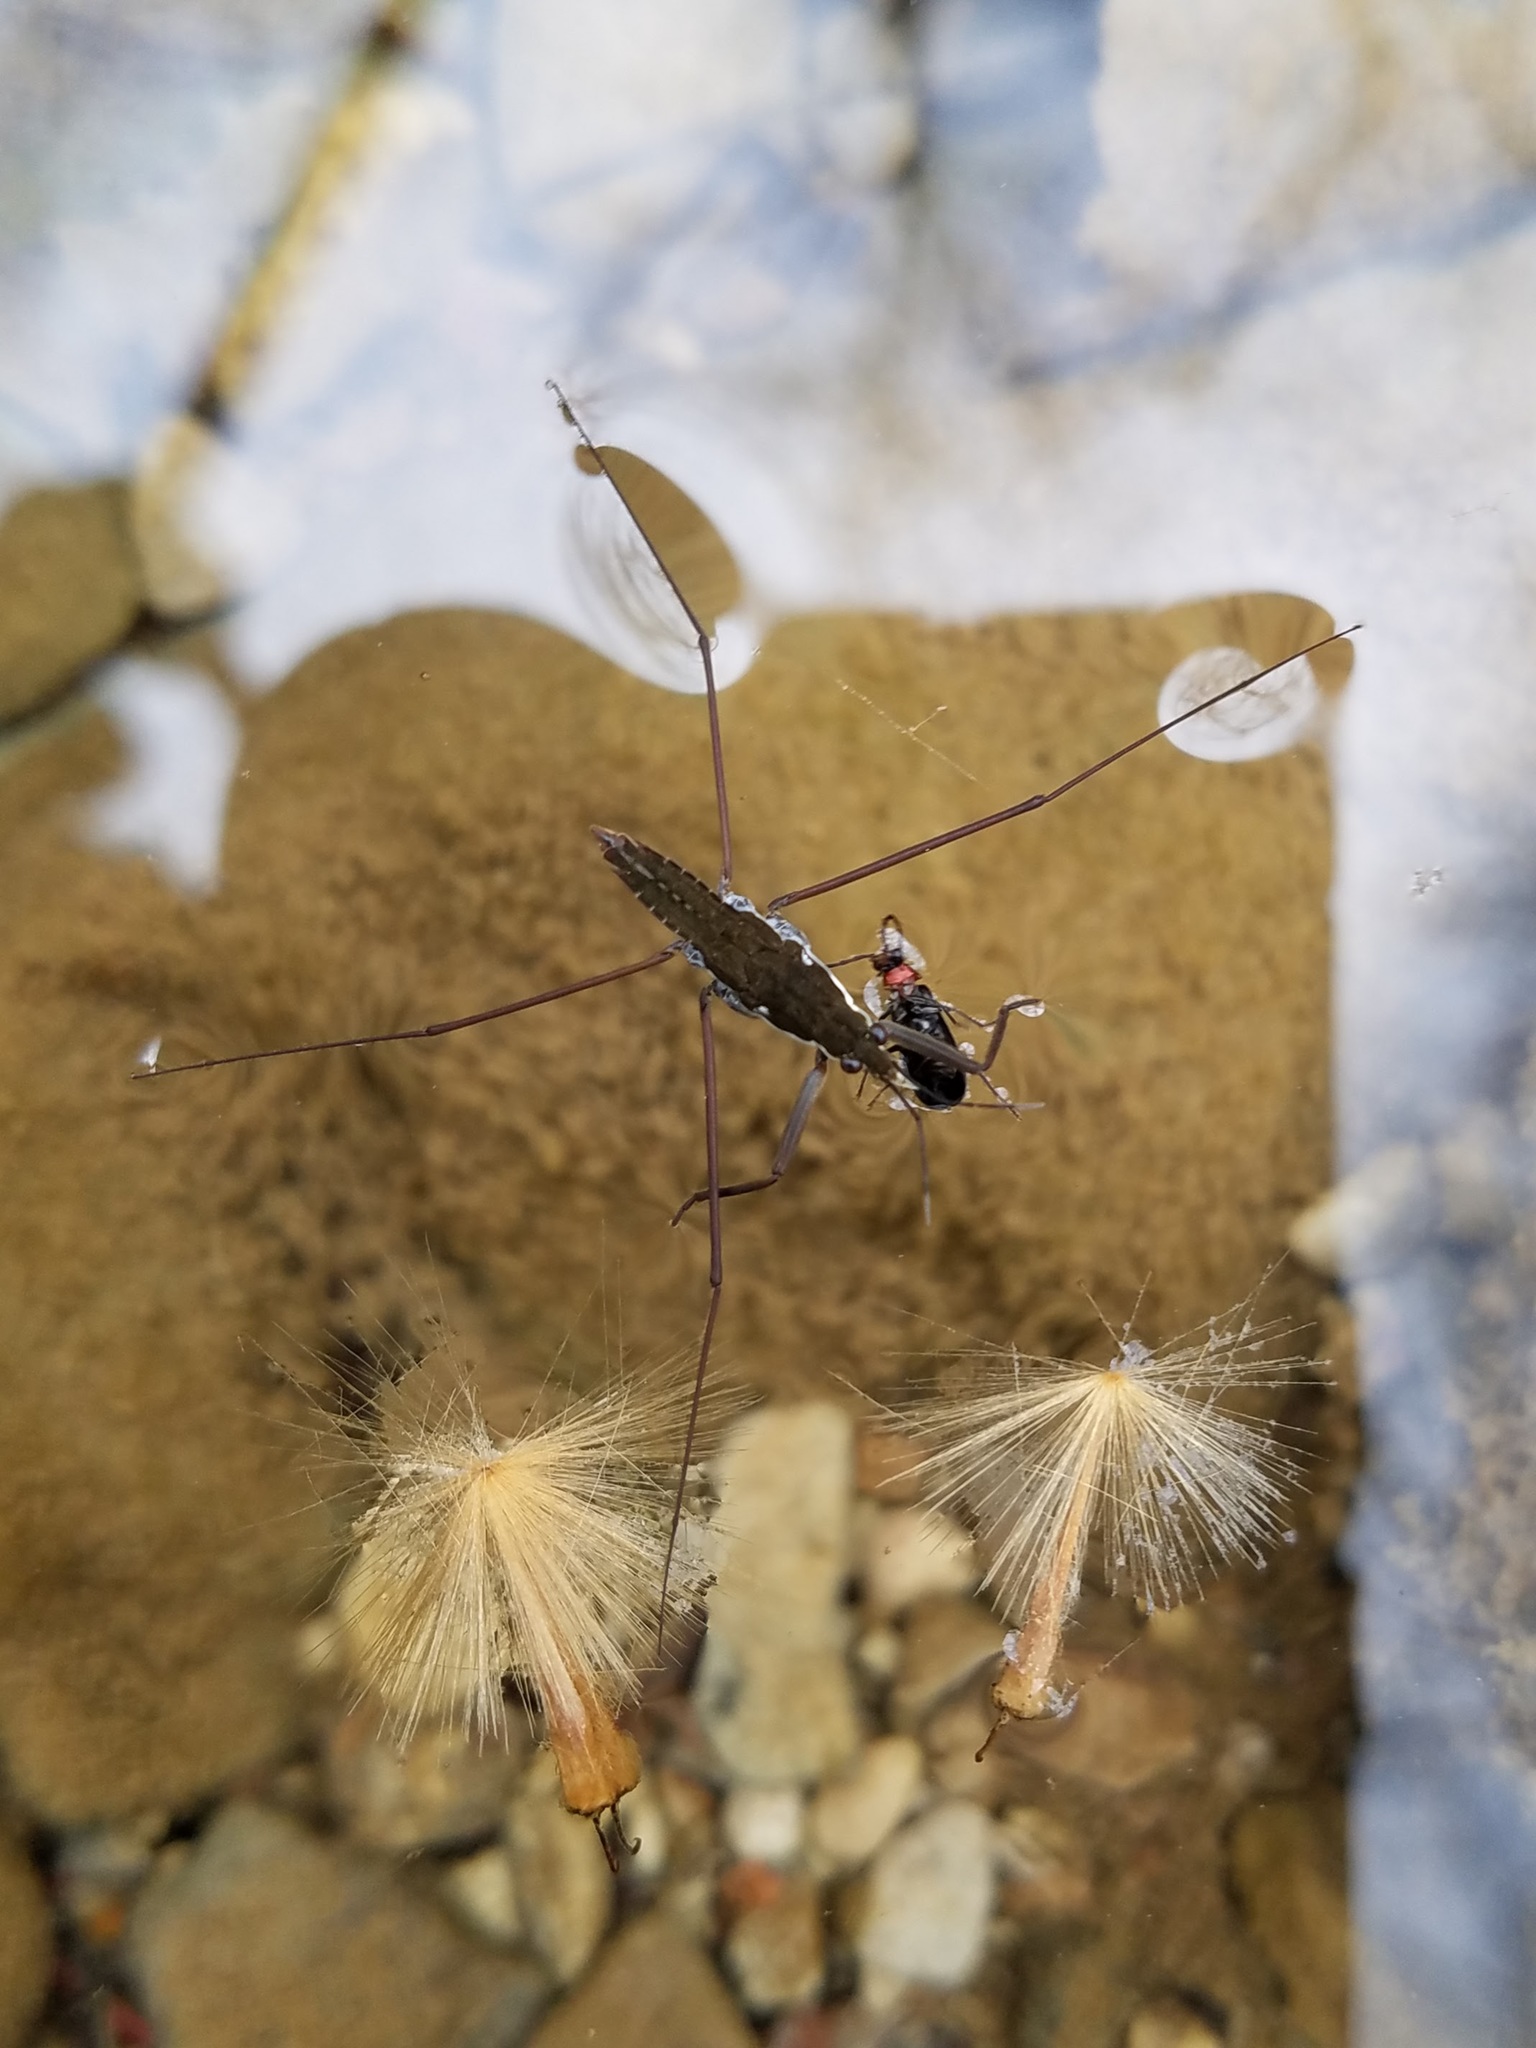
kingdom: Animalia
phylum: Arthropoda
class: Insecta
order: Hemiptera
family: Gerridae
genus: Aquarius
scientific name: Aquarius
